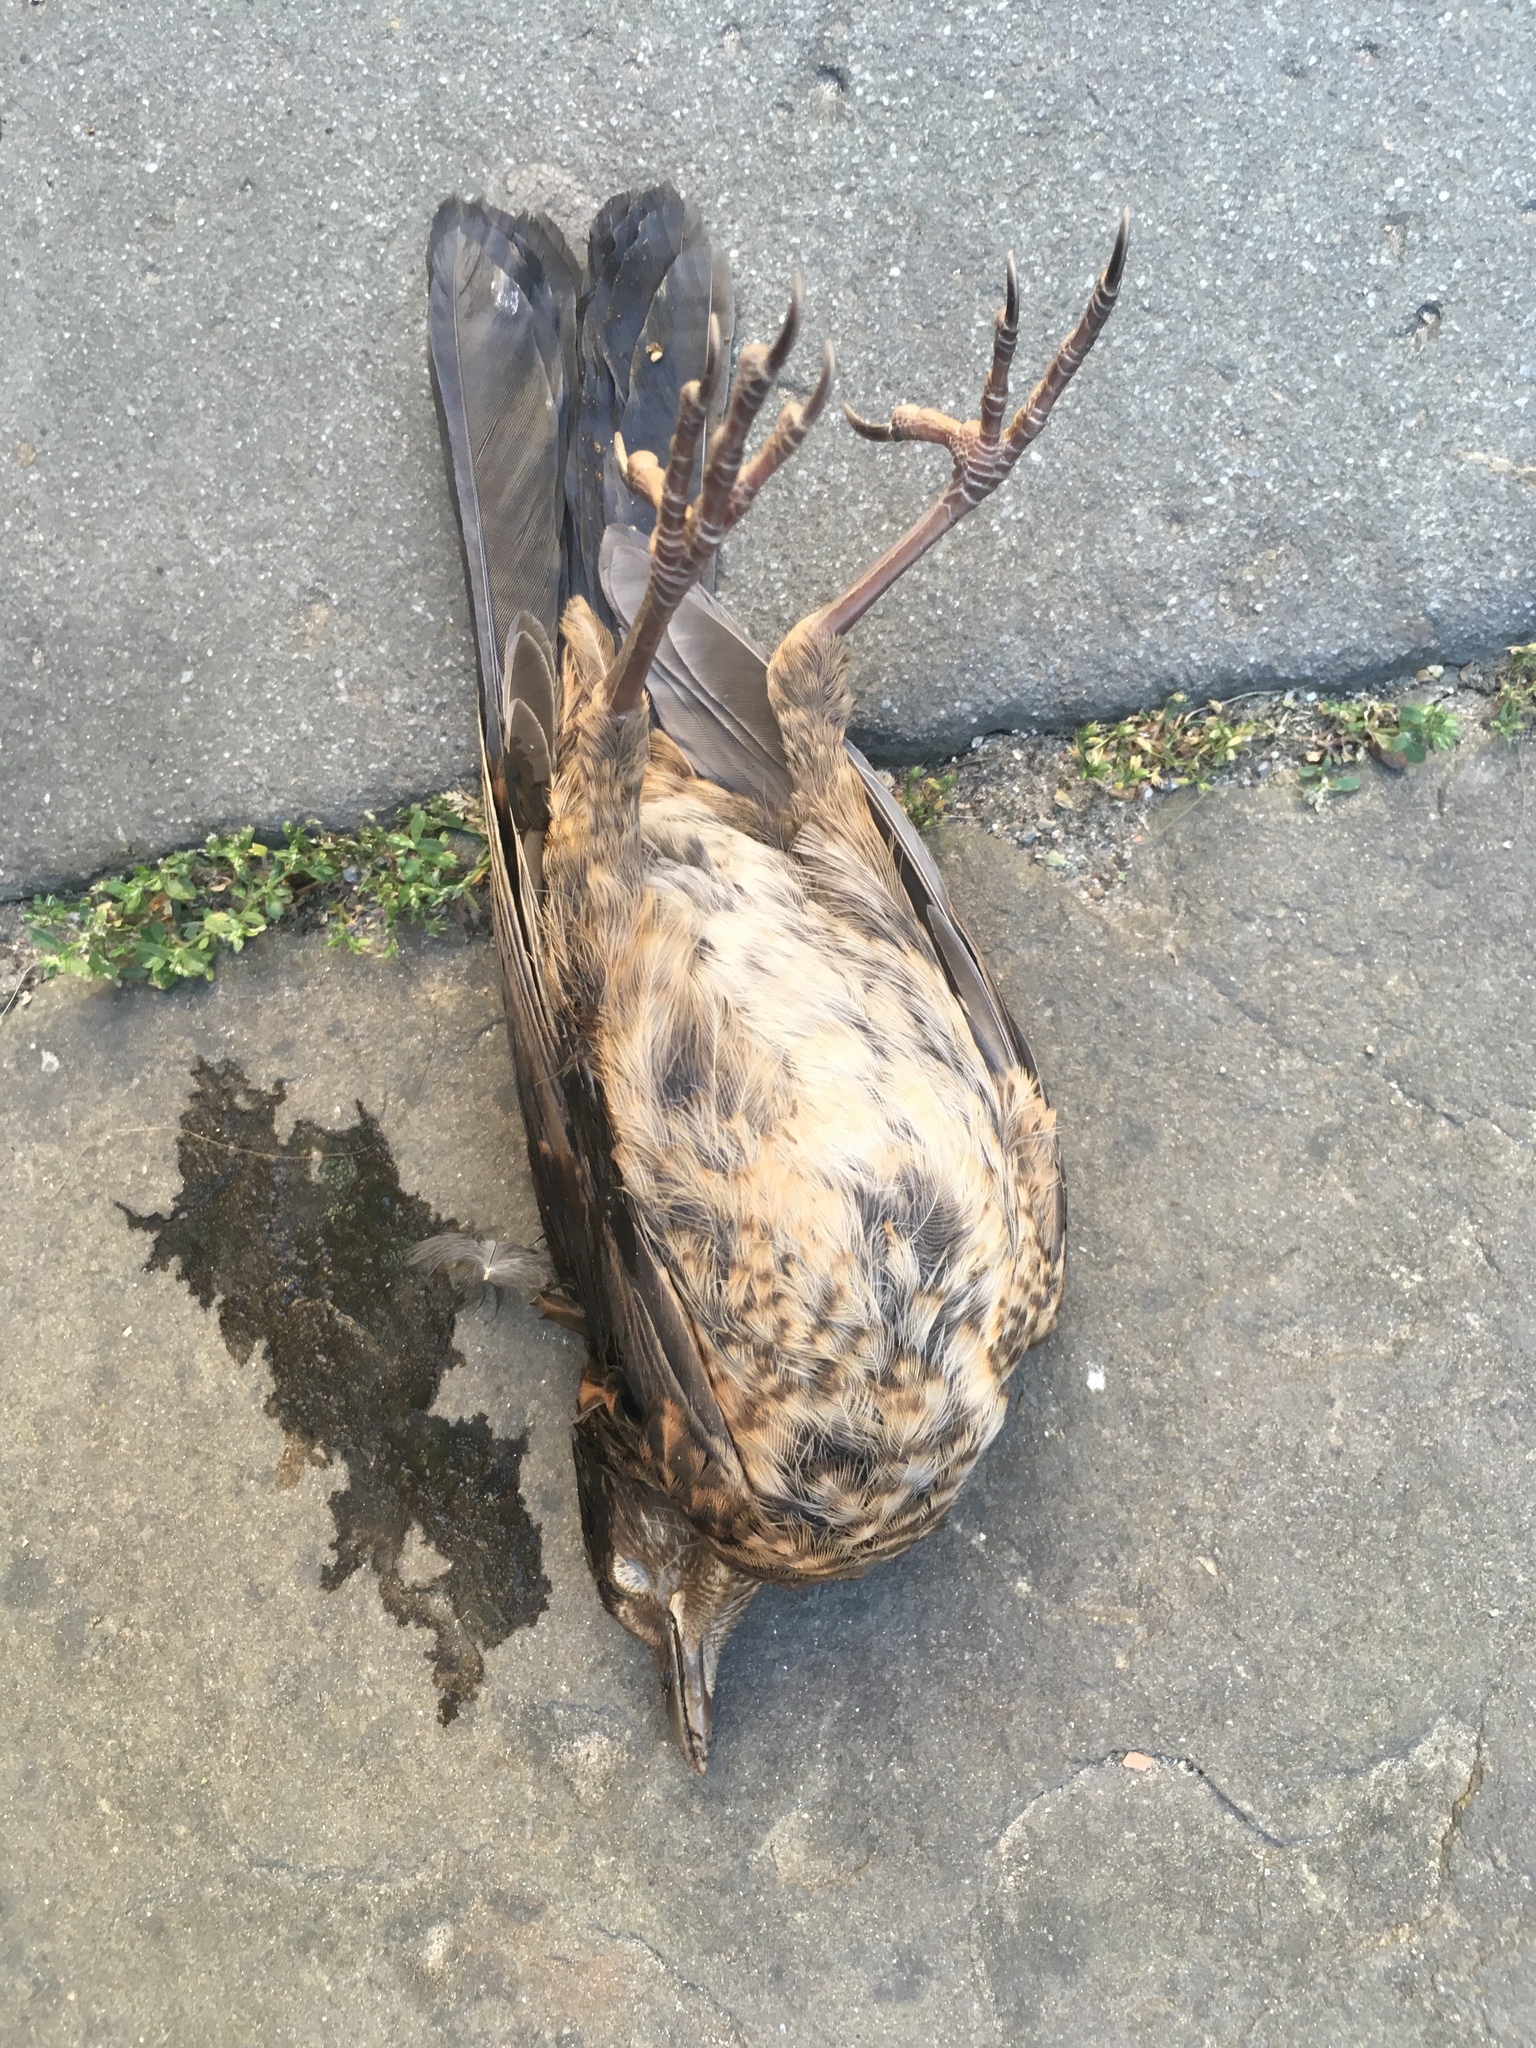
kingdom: Animalia
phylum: Chordata
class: Aves
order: Passeriformes
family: Turdidae
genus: Turdus
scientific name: Turdus merula
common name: Common blackbird
